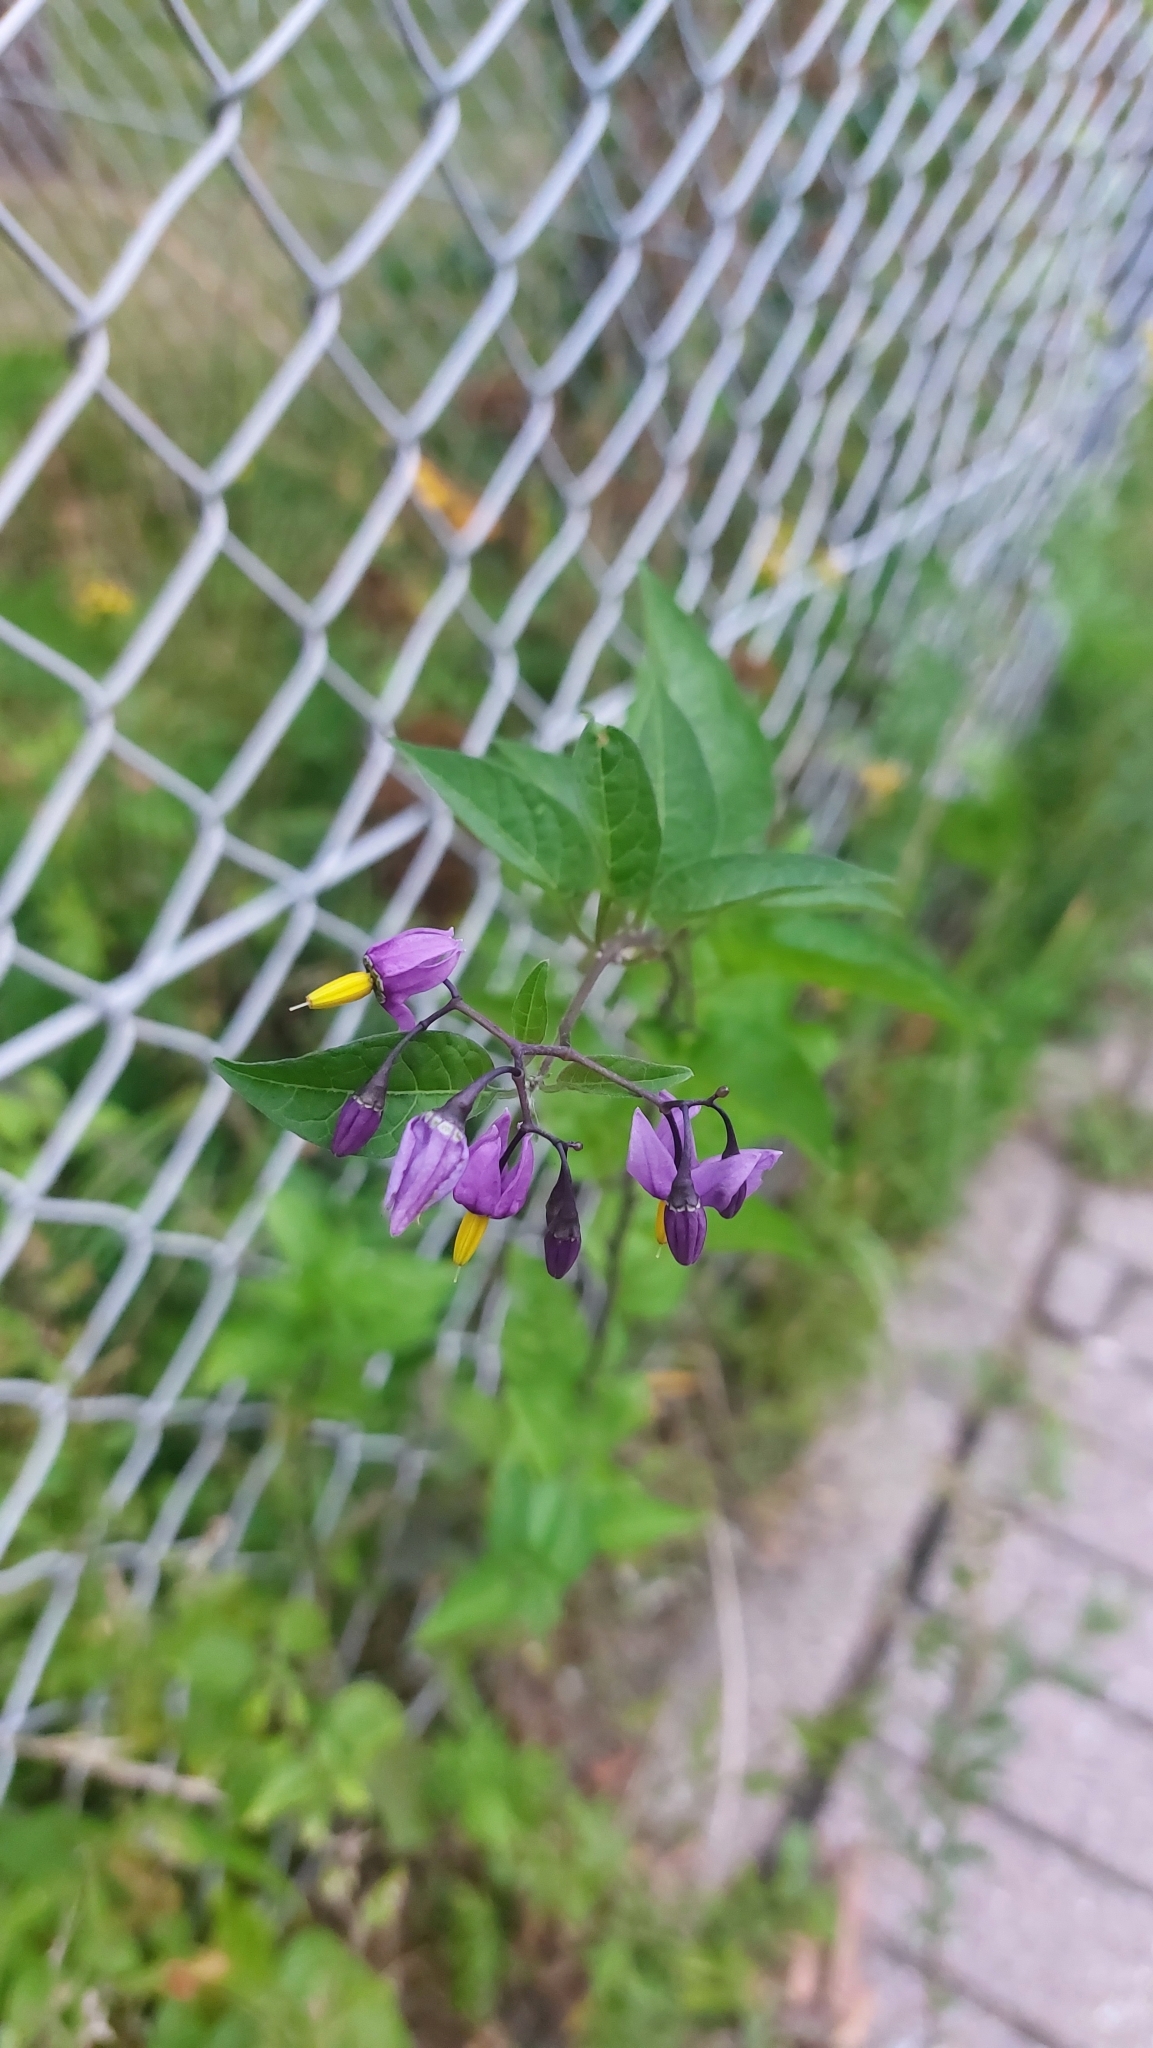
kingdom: Plantae
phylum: Tracheophyta
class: Magnoliopsida
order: Solanales
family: Solanaceae
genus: Solanum
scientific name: Solanum dulcamara
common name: Climbing nightshade
